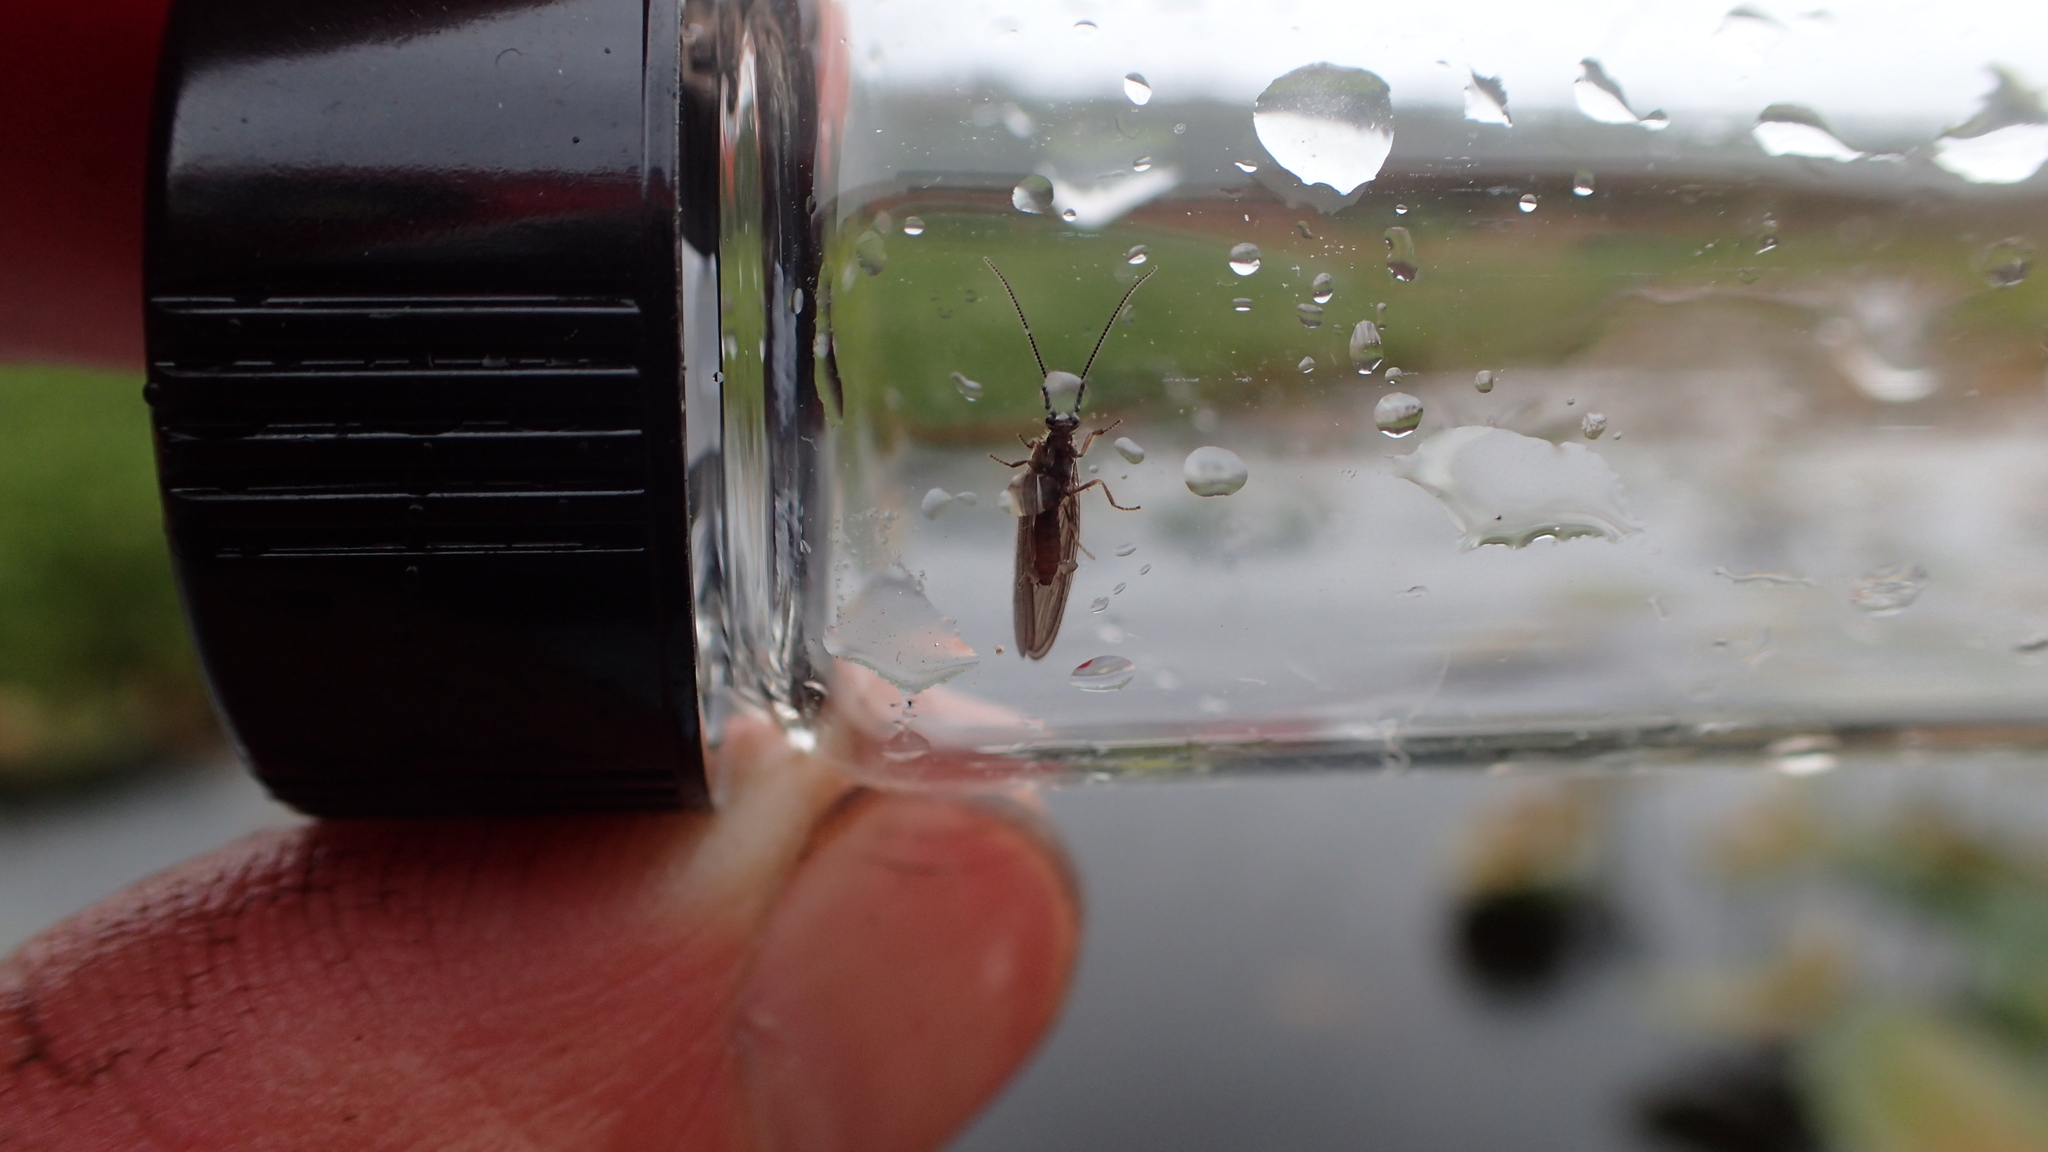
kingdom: Animalia
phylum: Arthropoda
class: Insecta
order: Neuroptera
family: Sisyridae
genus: Sisyra
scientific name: Sisyra nigra
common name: Black spongillafly
